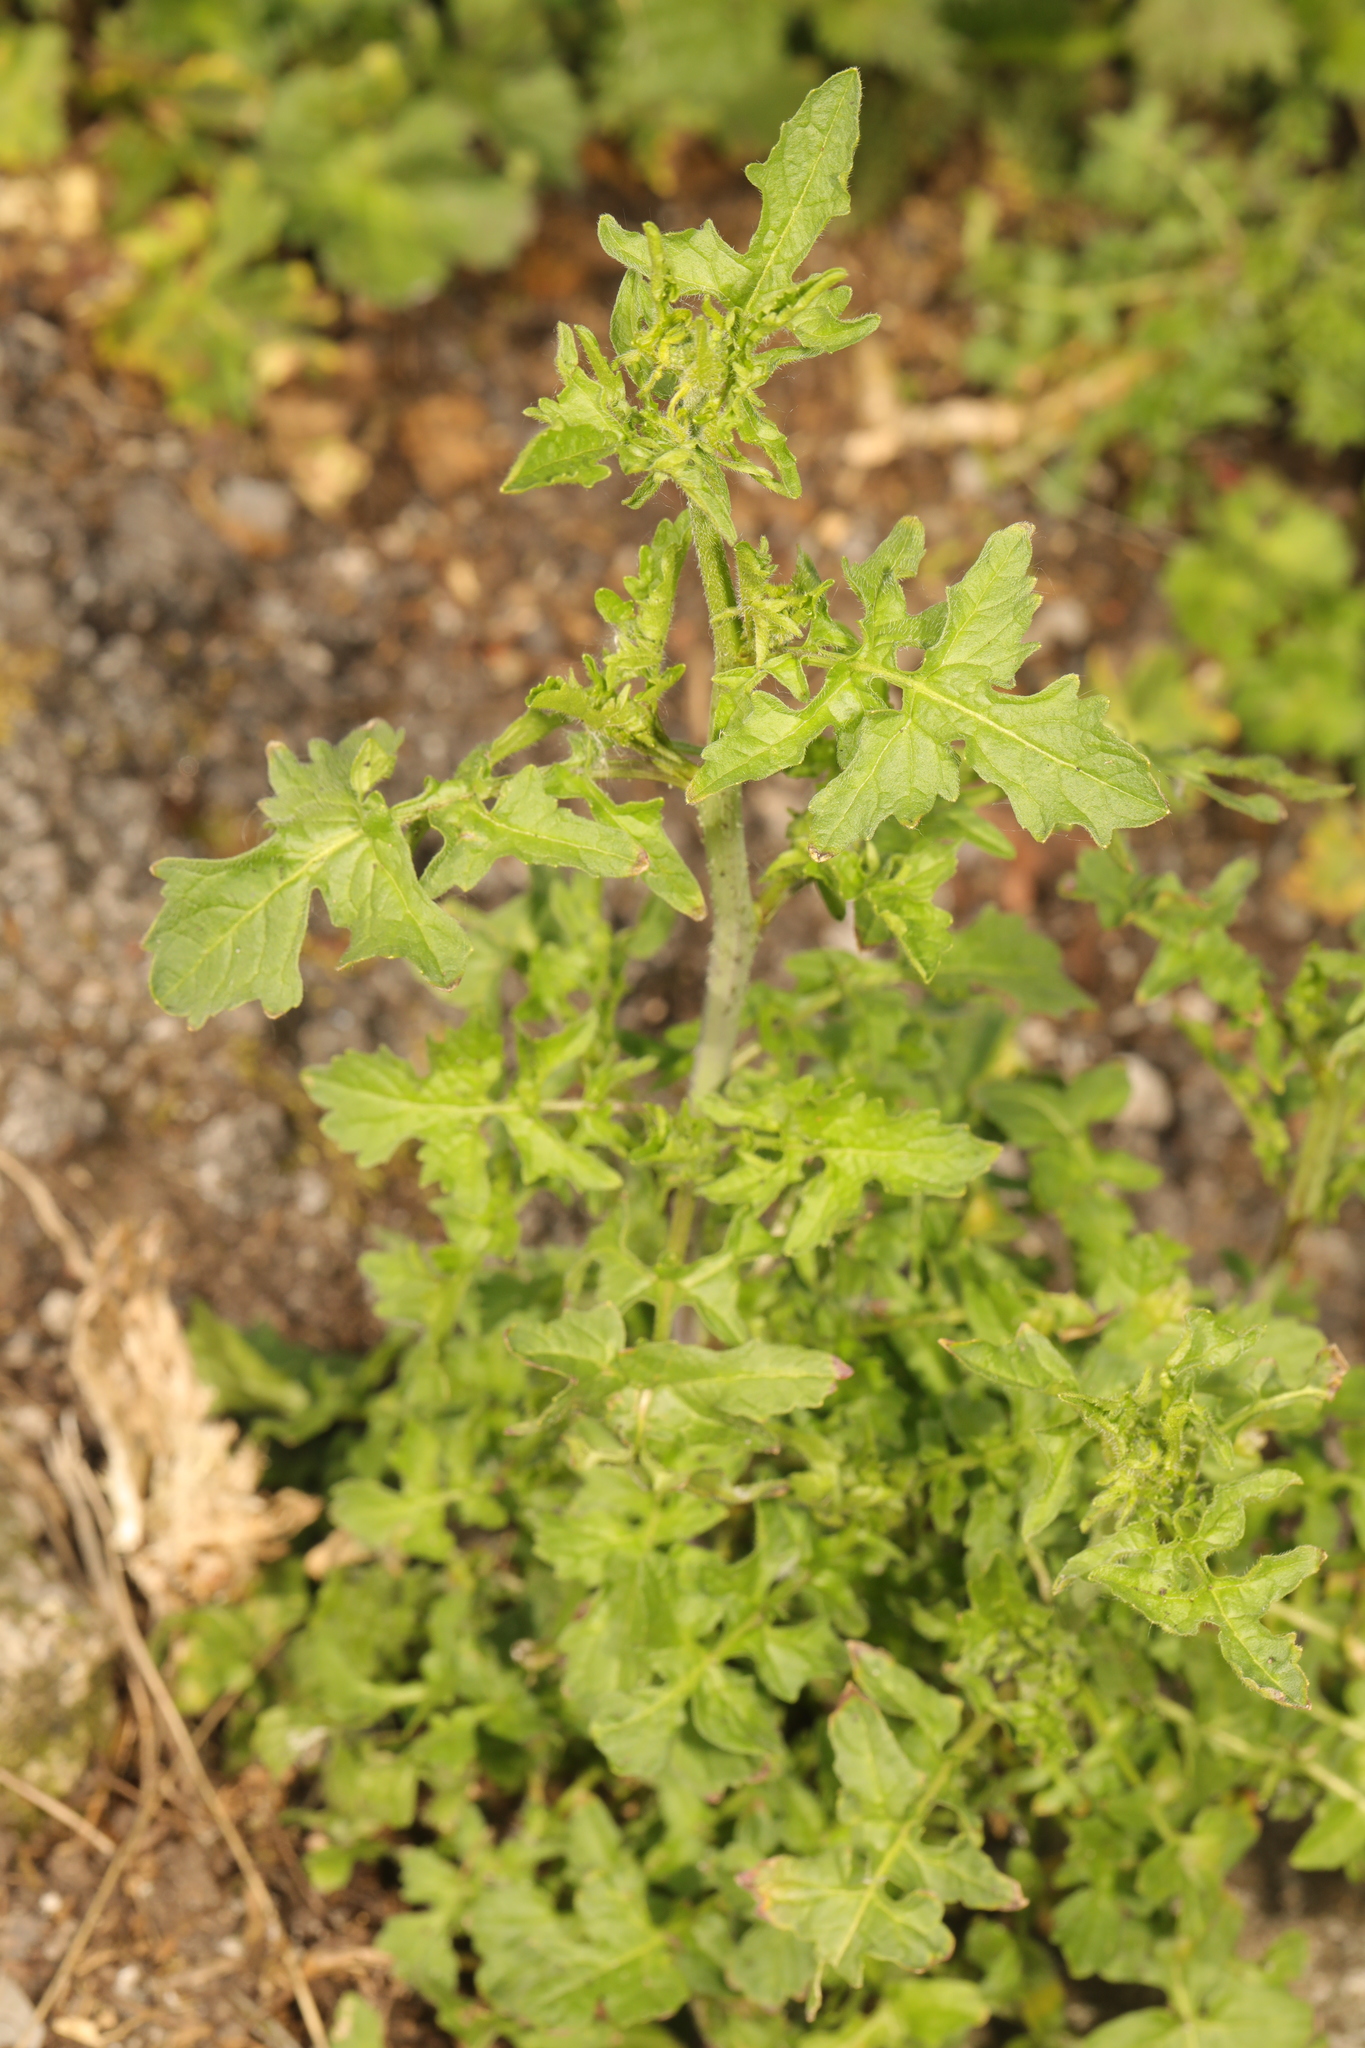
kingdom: Plantae
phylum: Tracheophyta
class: Magnoliopsida
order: Brassicales
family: Brassicaceae
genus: Sisymbrium
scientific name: Sisymbrium officinale
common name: Hedge mustard
